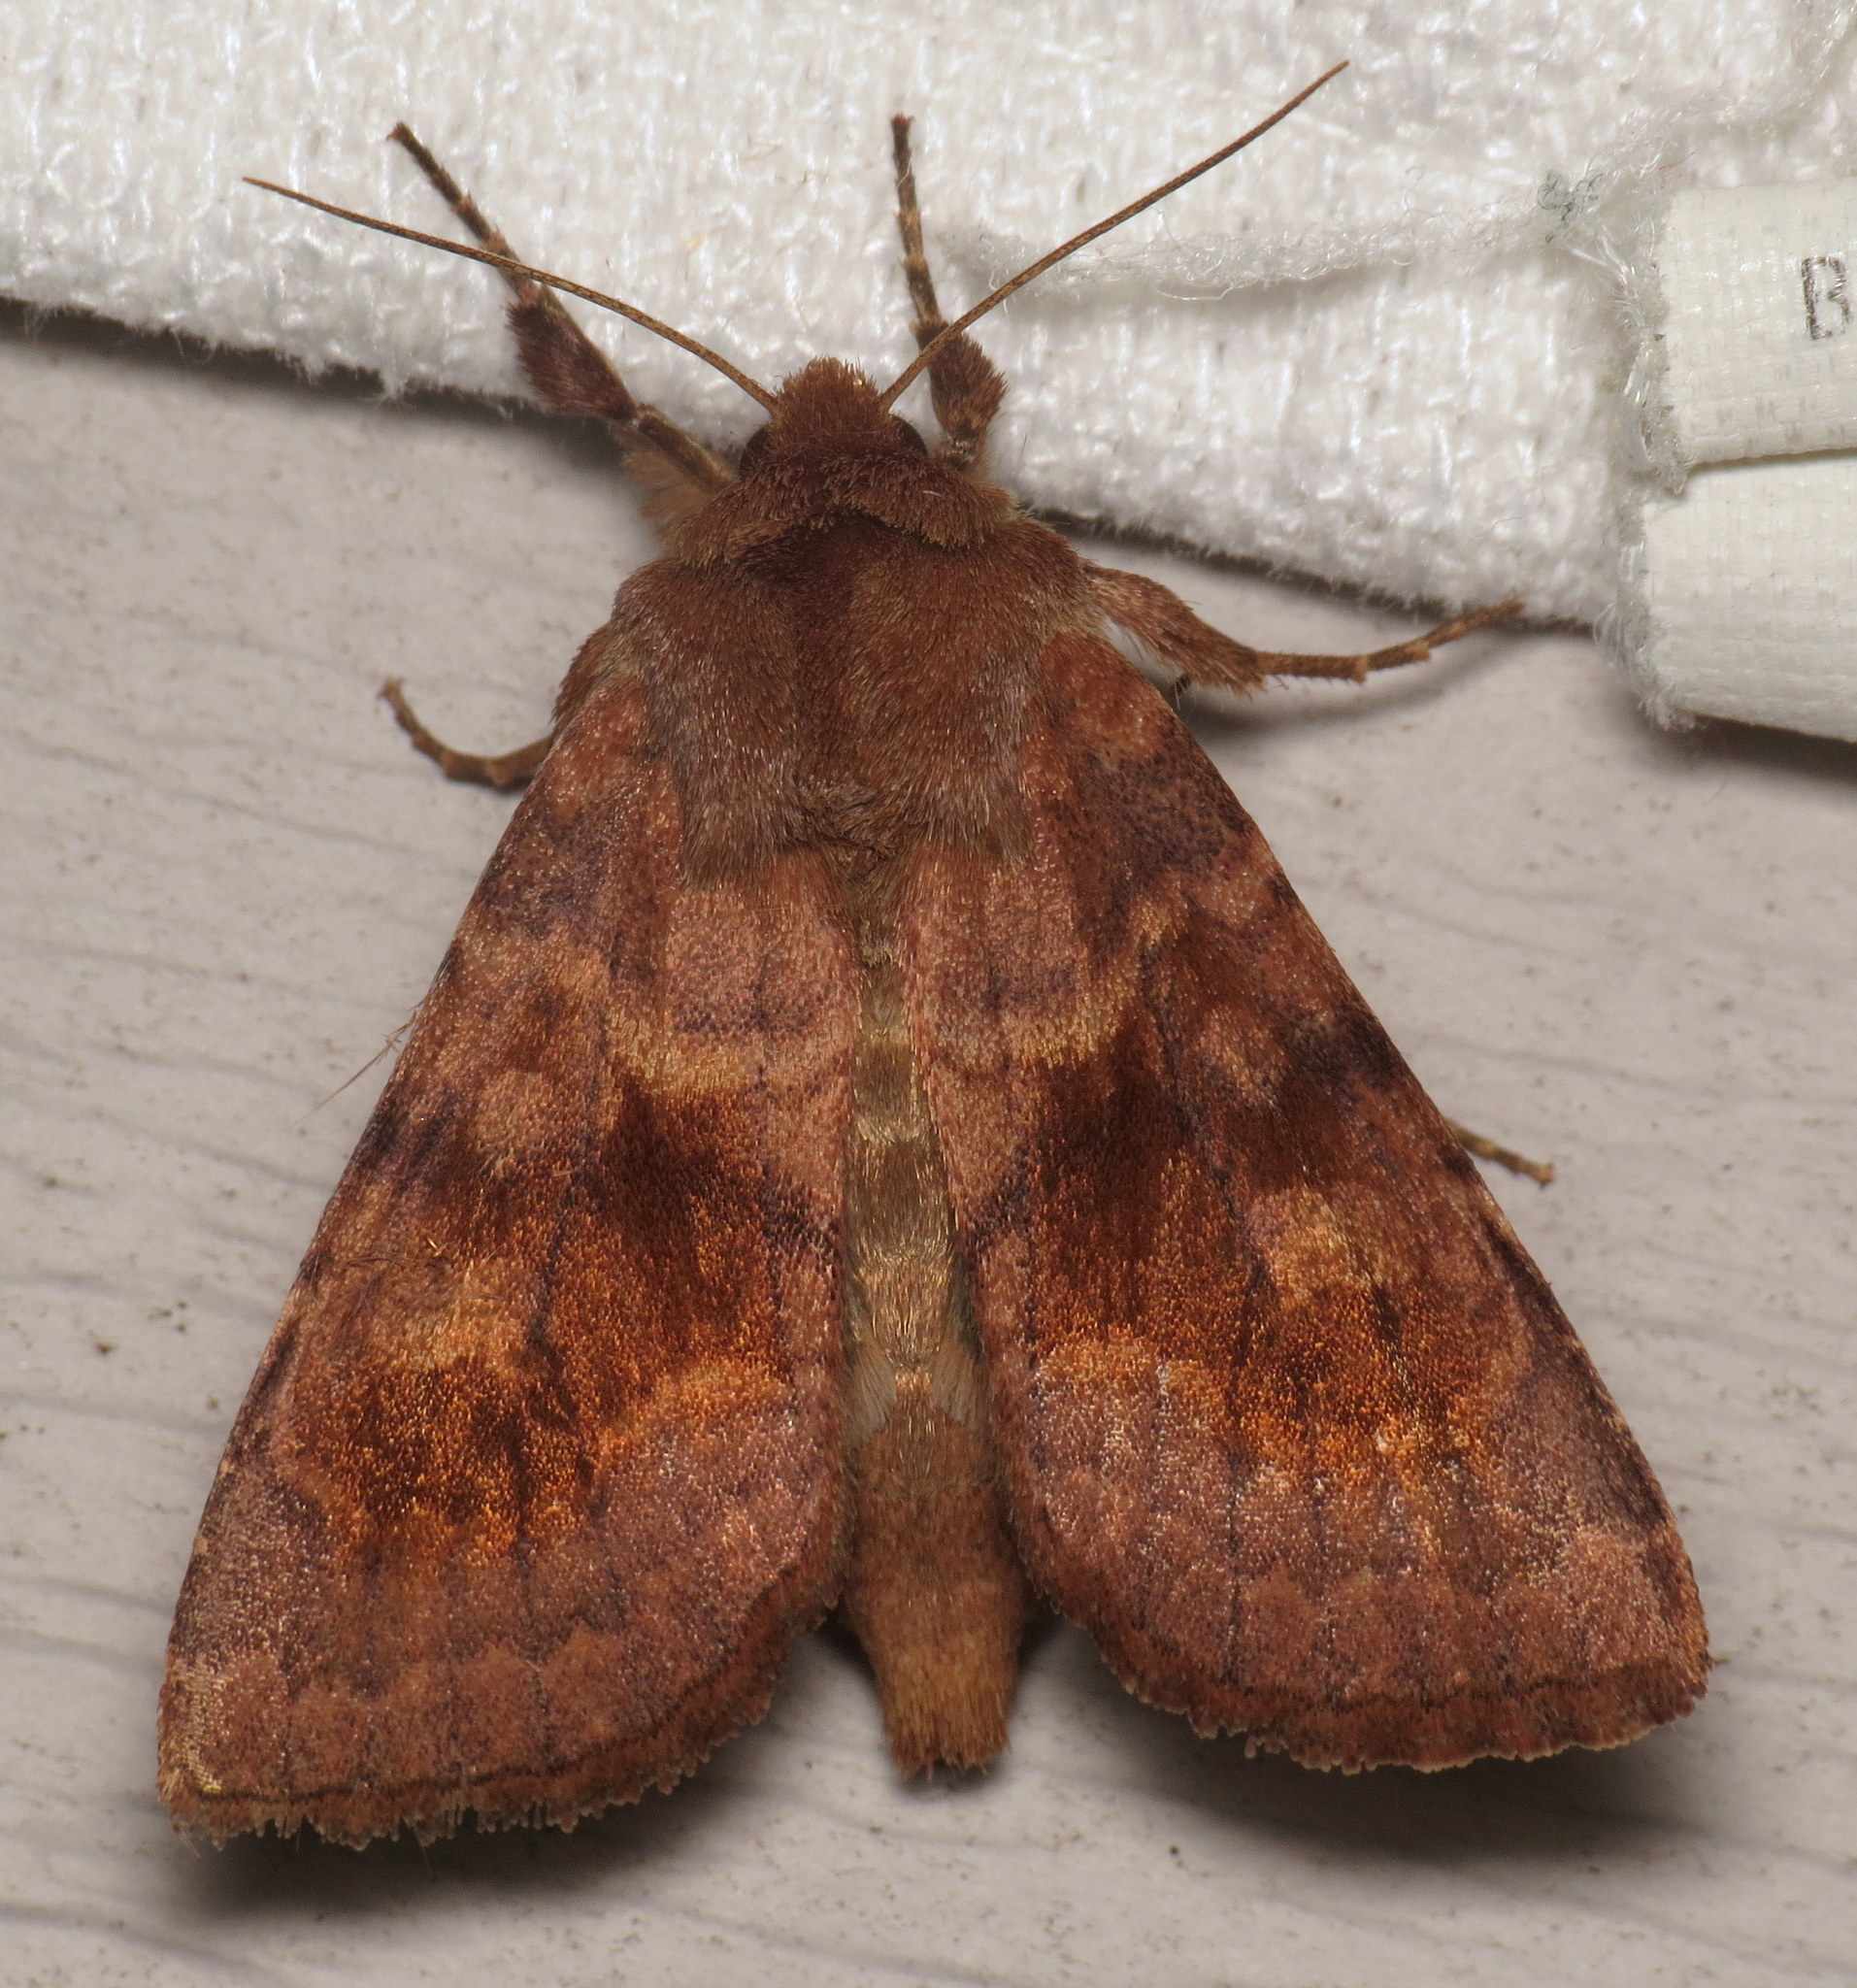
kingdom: Animalia
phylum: Arthropoda
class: Insecta
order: Lepidoptera
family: Noctuidae
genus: Nephelodes
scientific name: Nephelodes minians
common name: Bronzed cutworm
